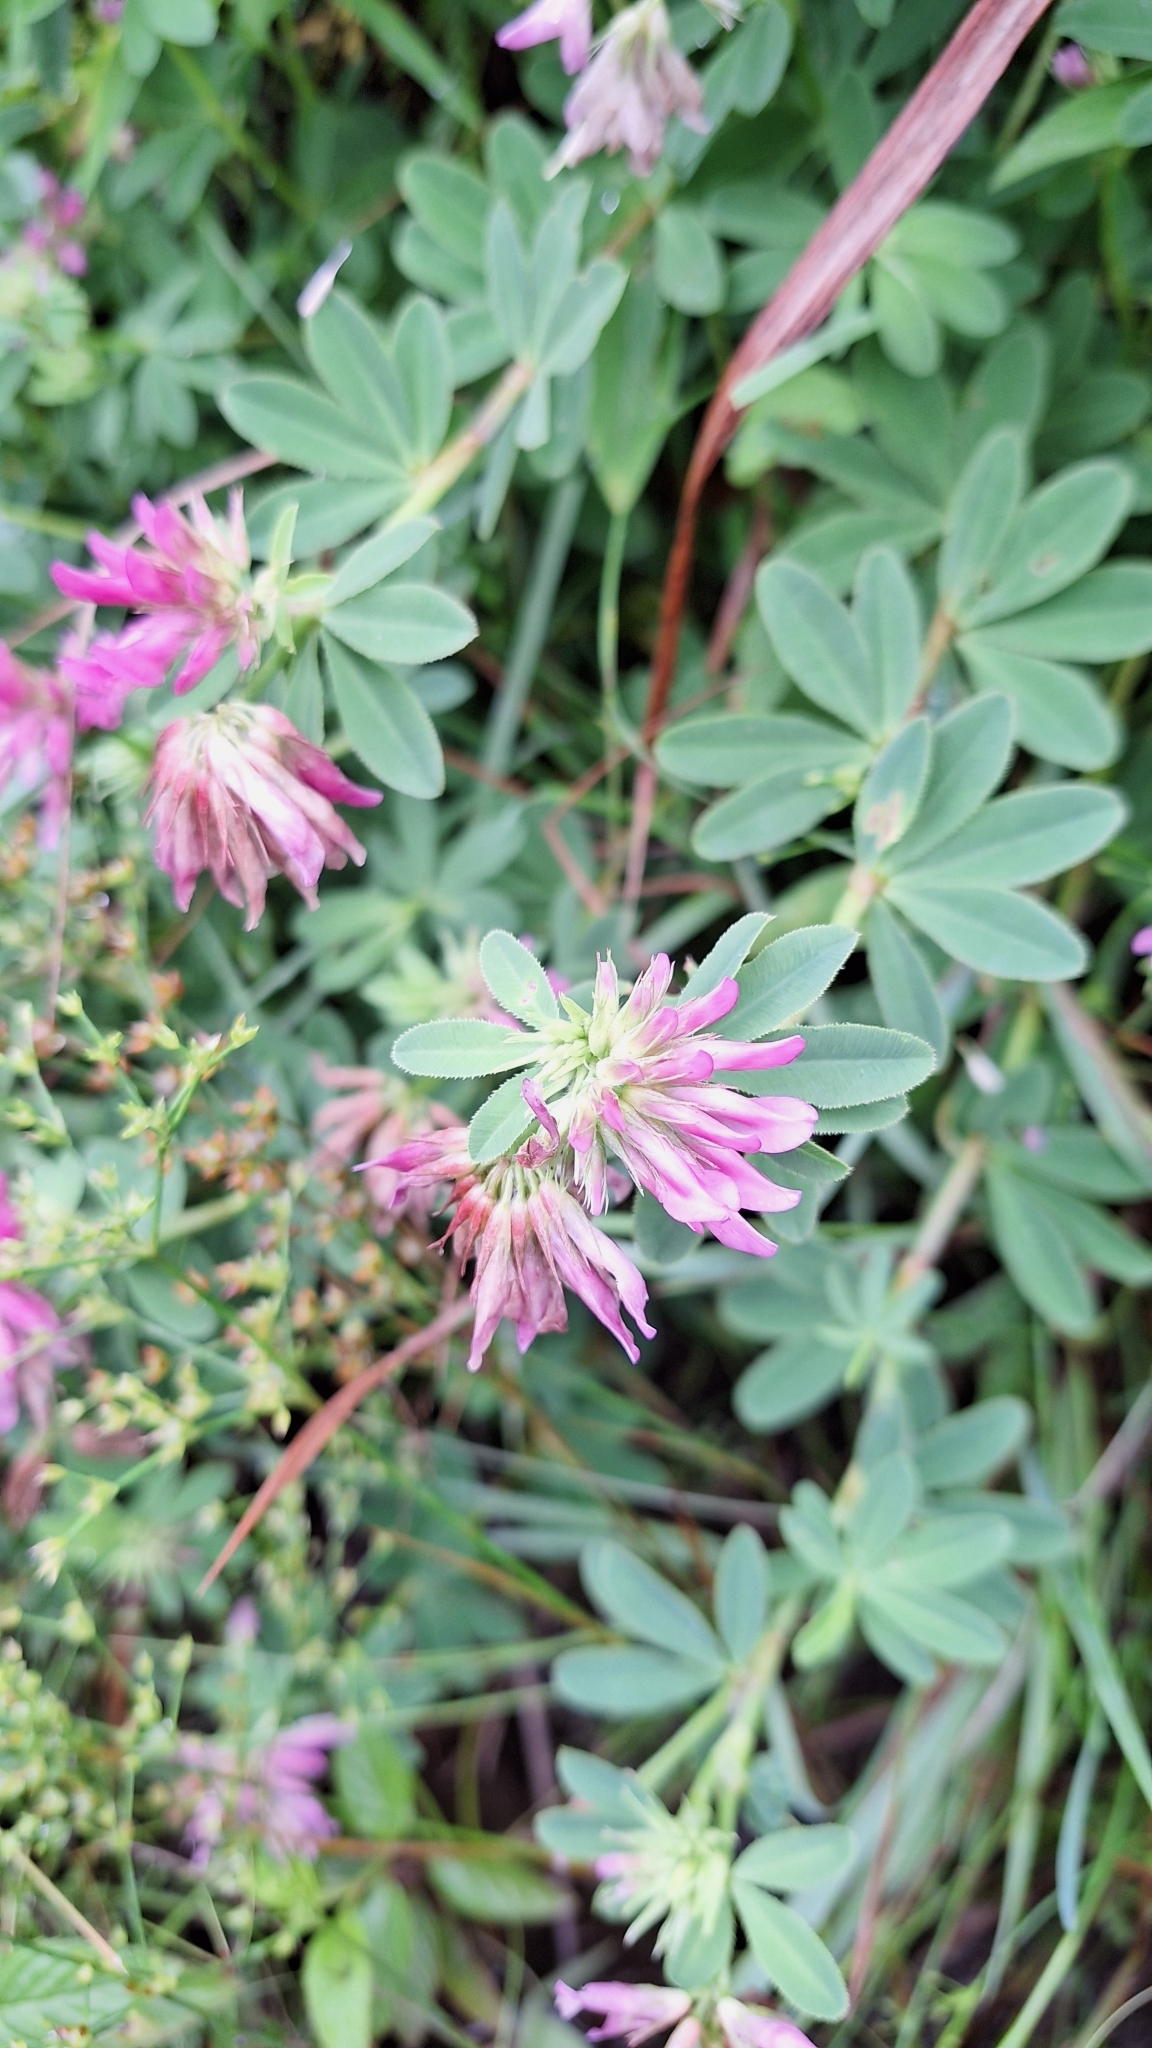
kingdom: Plantae
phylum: Tracheophyta
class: Magnoliopsida
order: Fabales
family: Fabaceae
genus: Trifolium
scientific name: Trifolium lupinaster
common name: Lupine clover
